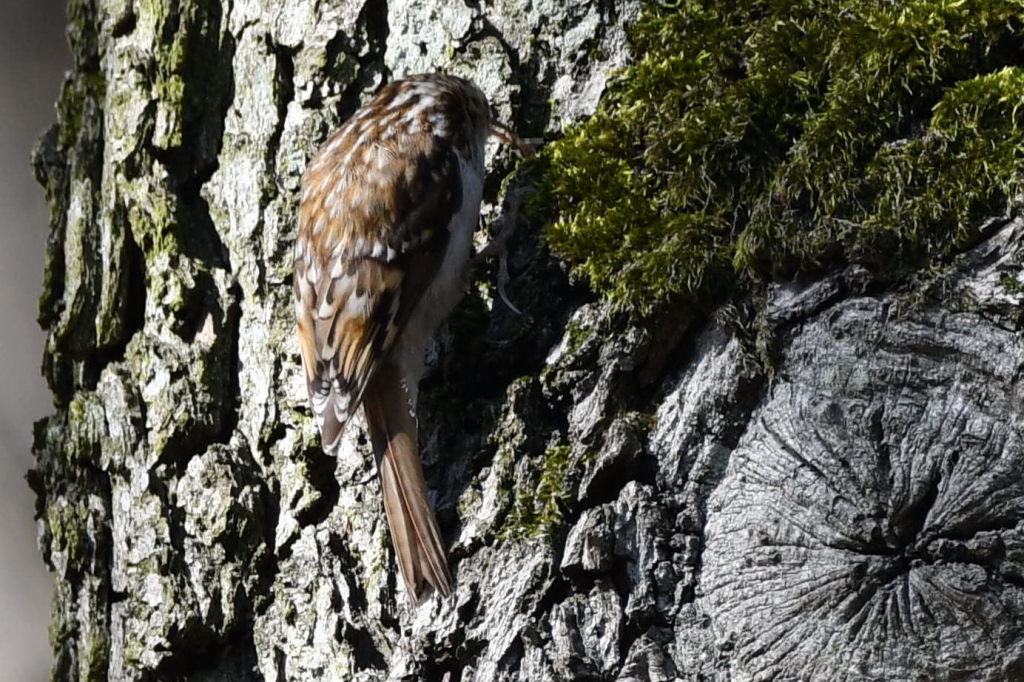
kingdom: Animalia
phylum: Chordata
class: Aves
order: Passeriformes
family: Certhiidae
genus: Certhia
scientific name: Certhia brachydactyla
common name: Short-toed treecreeper
